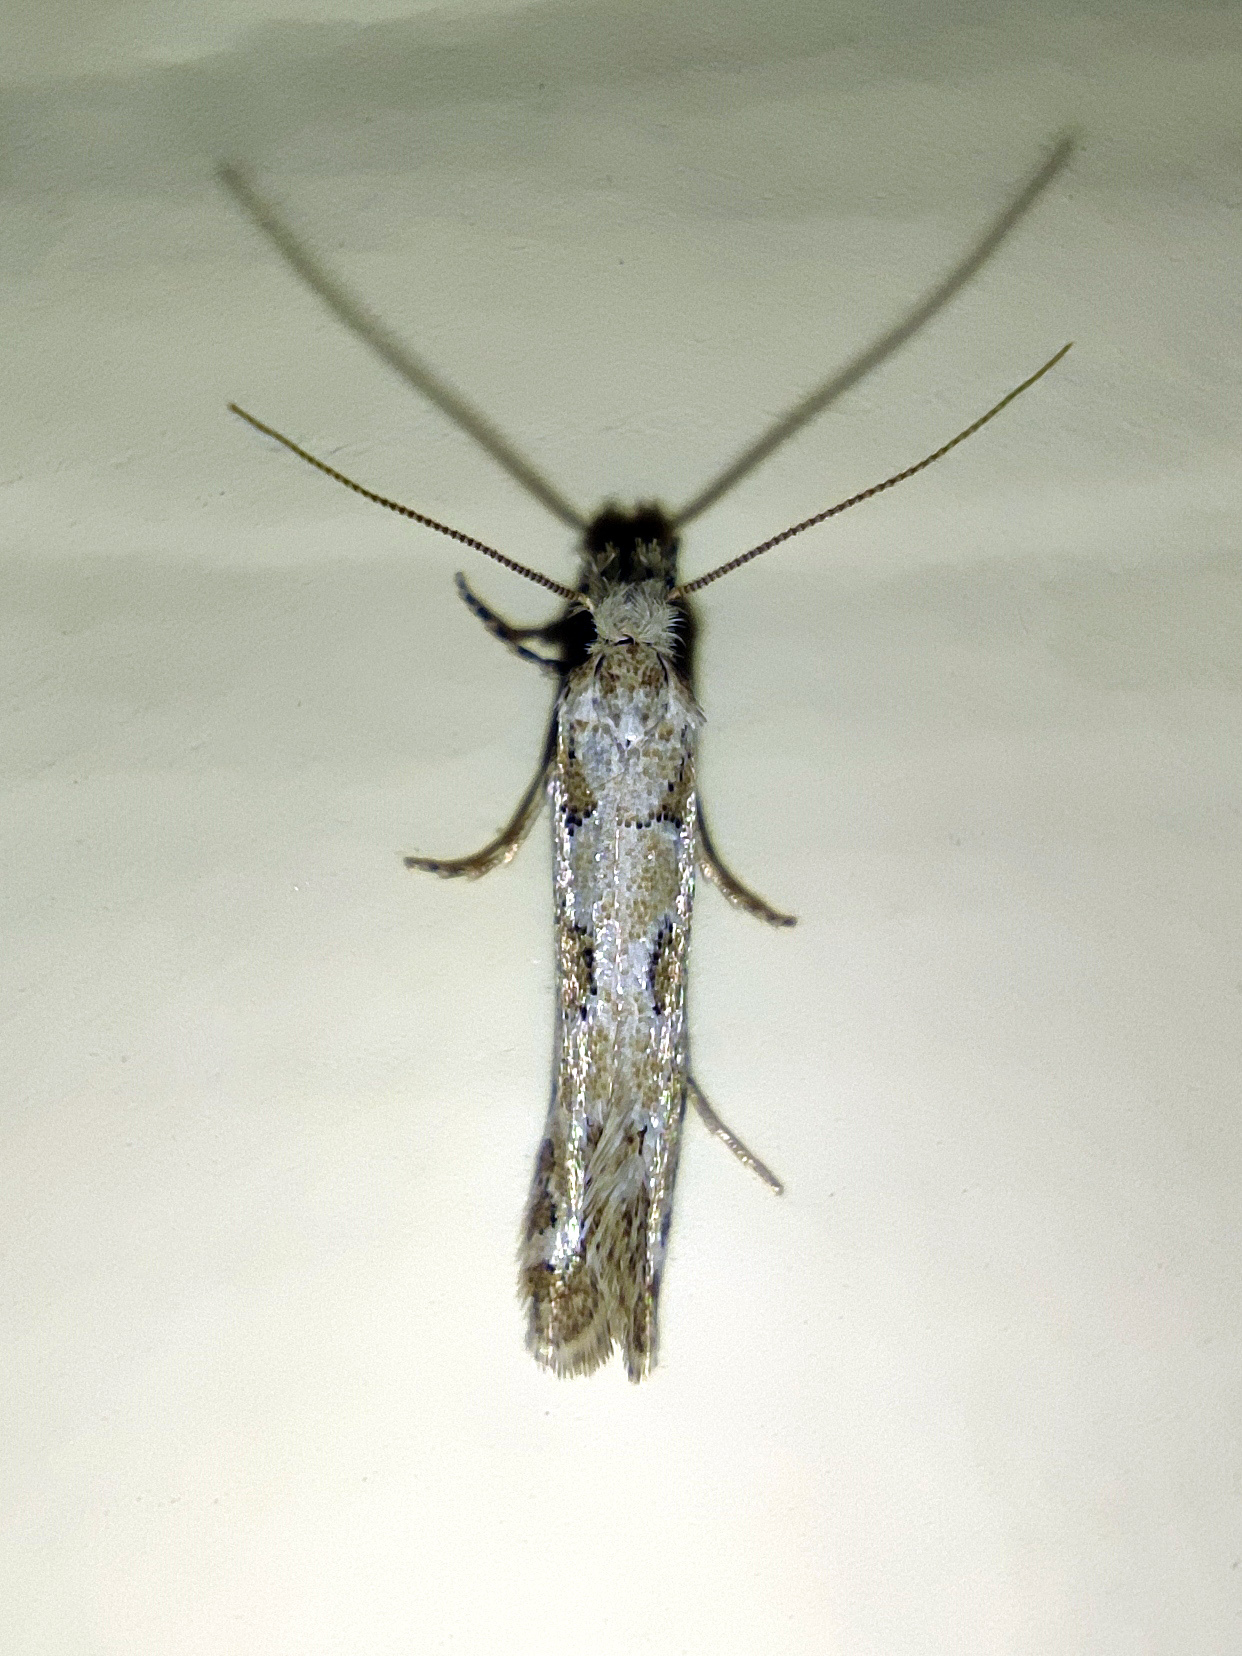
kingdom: Animalia
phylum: Arthropoda
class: Insecta
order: Lepidoptera
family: Tineidae
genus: Ateliotum
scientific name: Ateliotum hungaricellum
